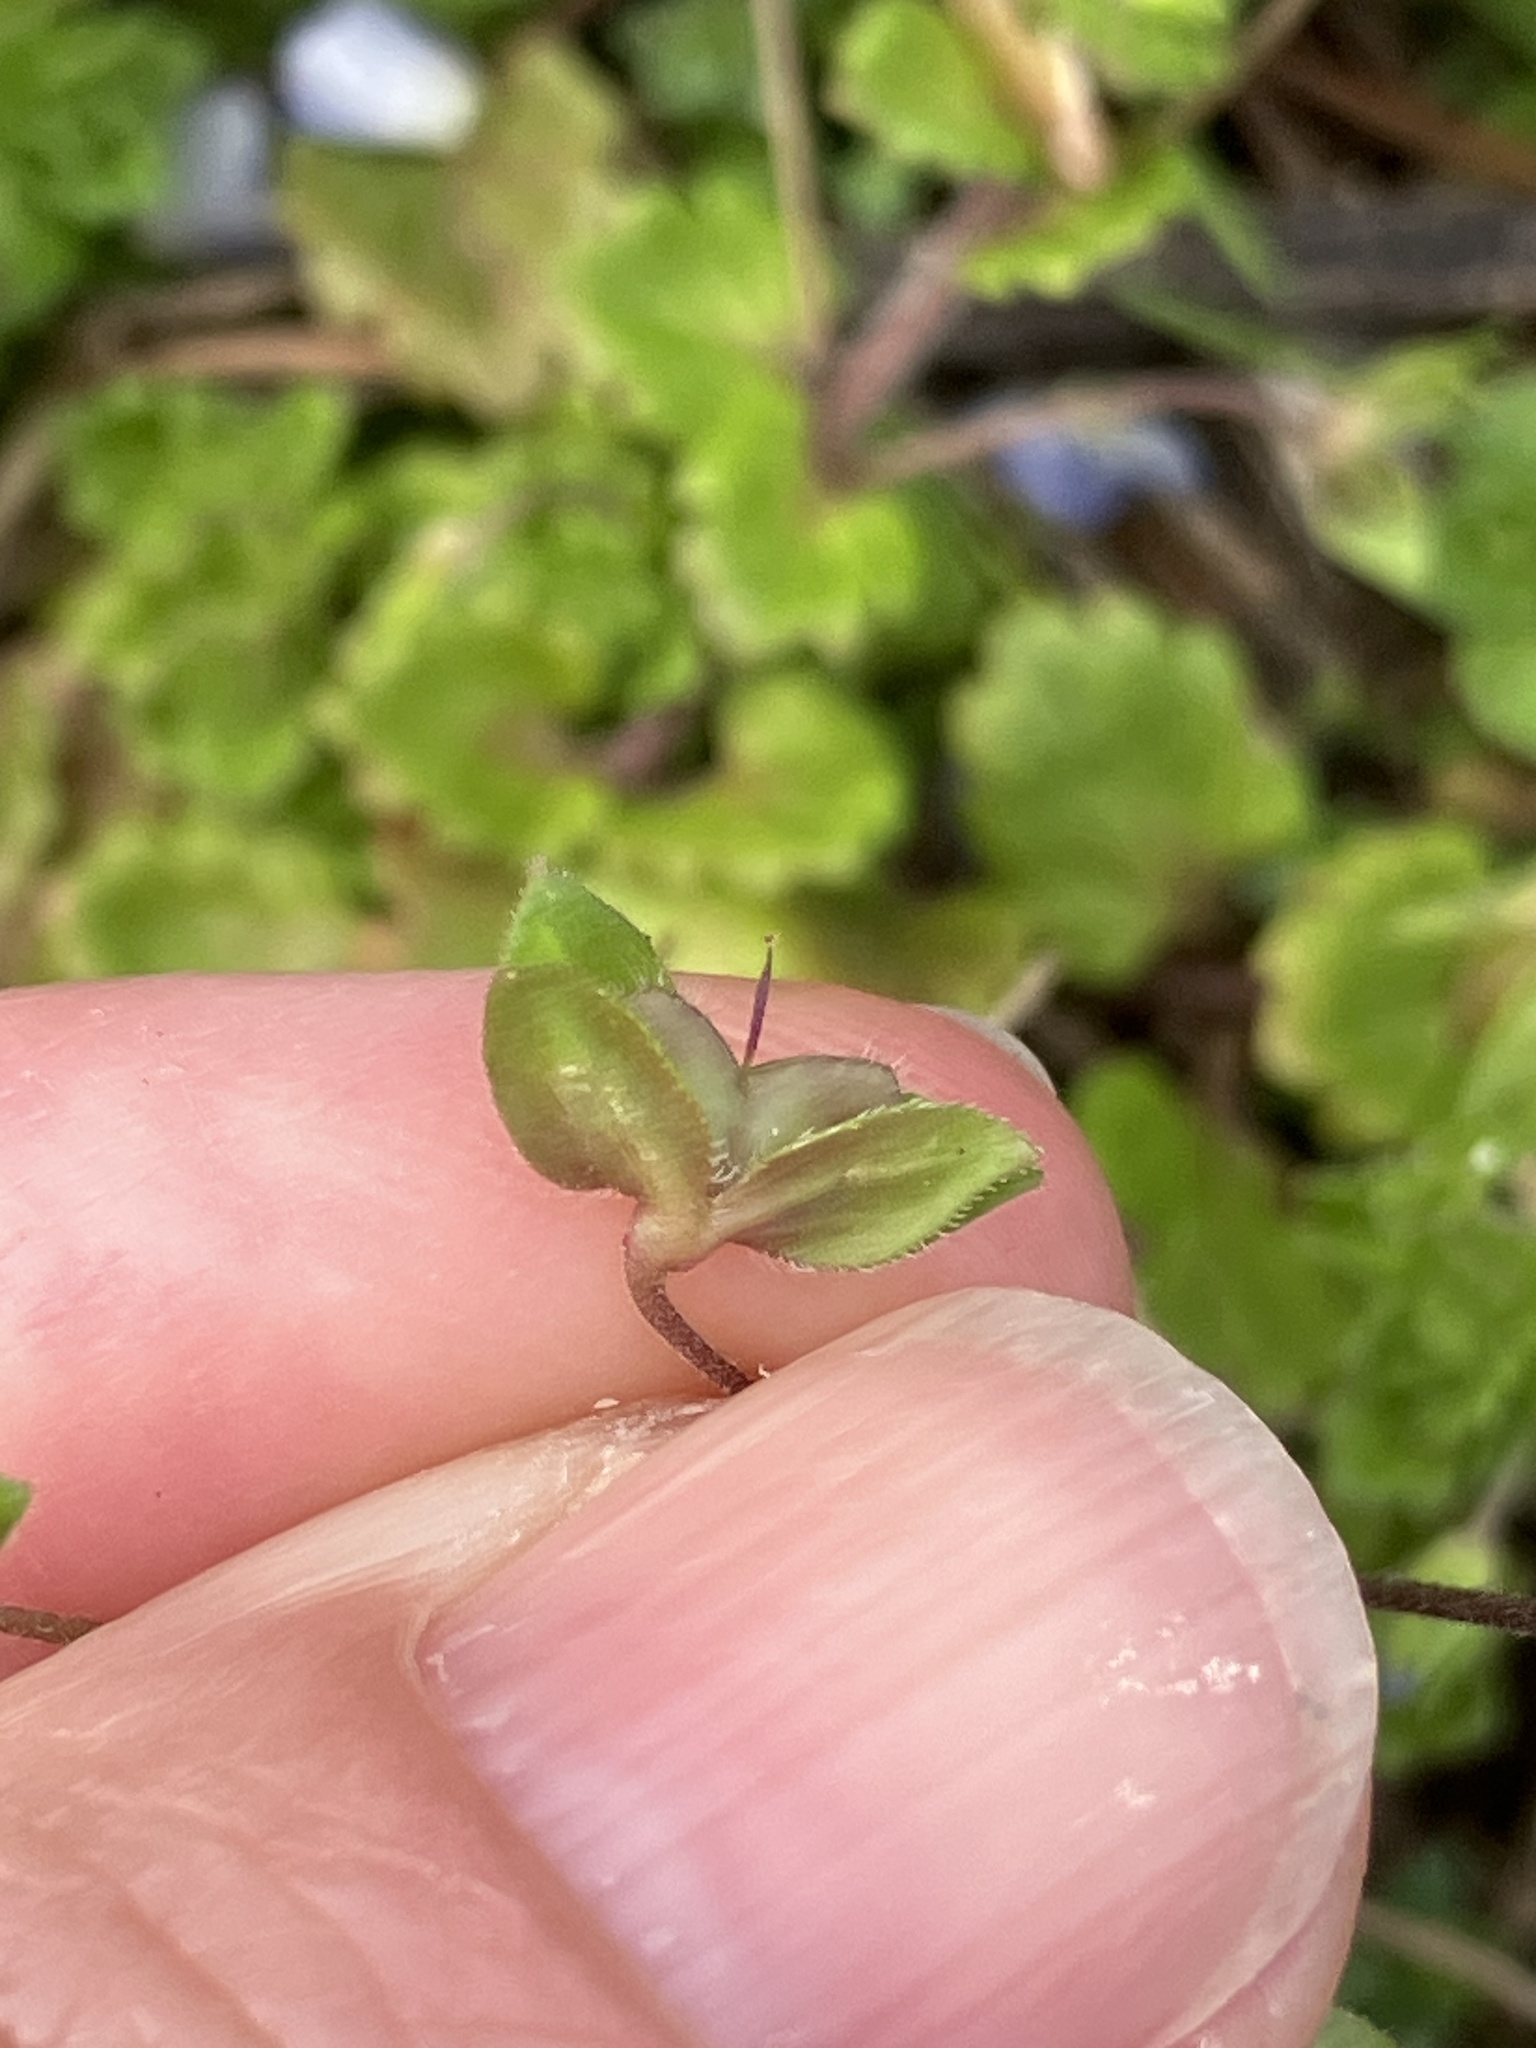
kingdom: Plantae
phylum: Tracheophyta
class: Magnoliopsida
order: Lamiales
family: Plantaginaceae
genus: Veronica
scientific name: Veronica persica
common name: Common field-speedwell
